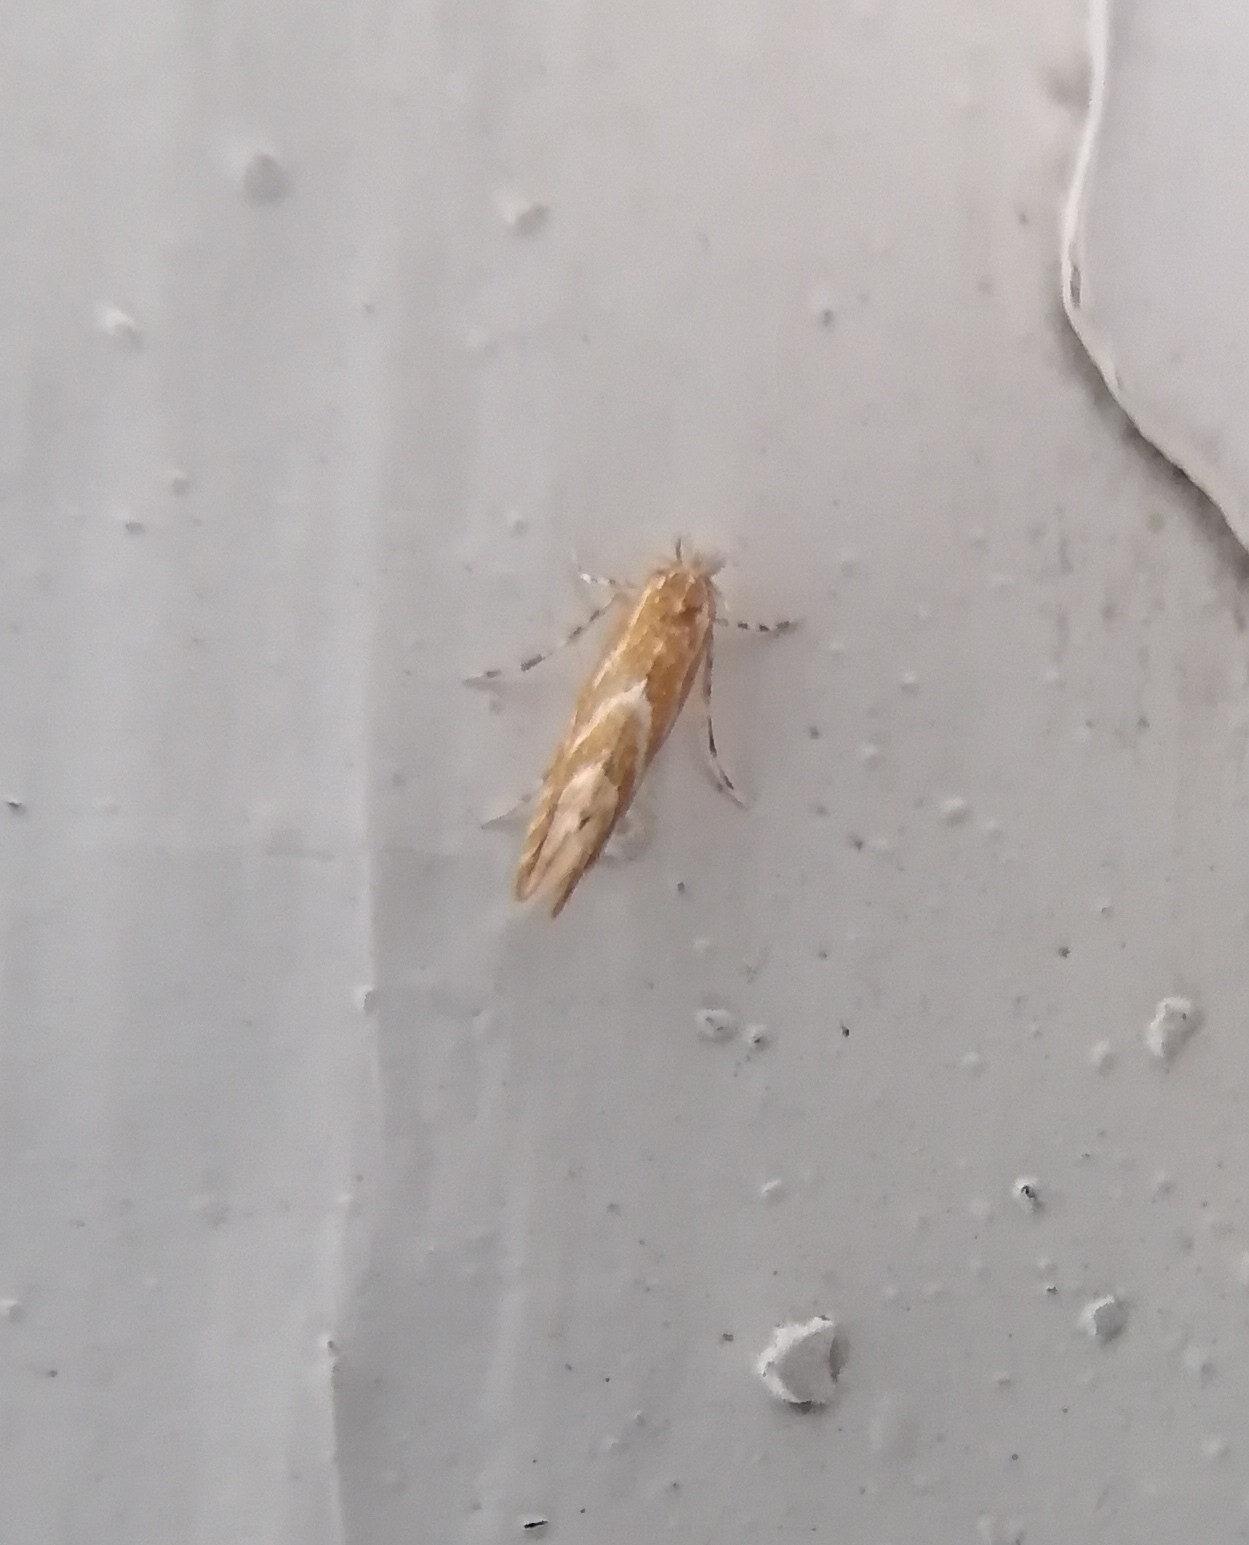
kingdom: Animalia
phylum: Arthropoda
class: Insecta
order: Lepidoptera
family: Gracillariidae
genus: Phyllonorycter
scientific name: Phyllonorycter issikii
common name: Linden midget
